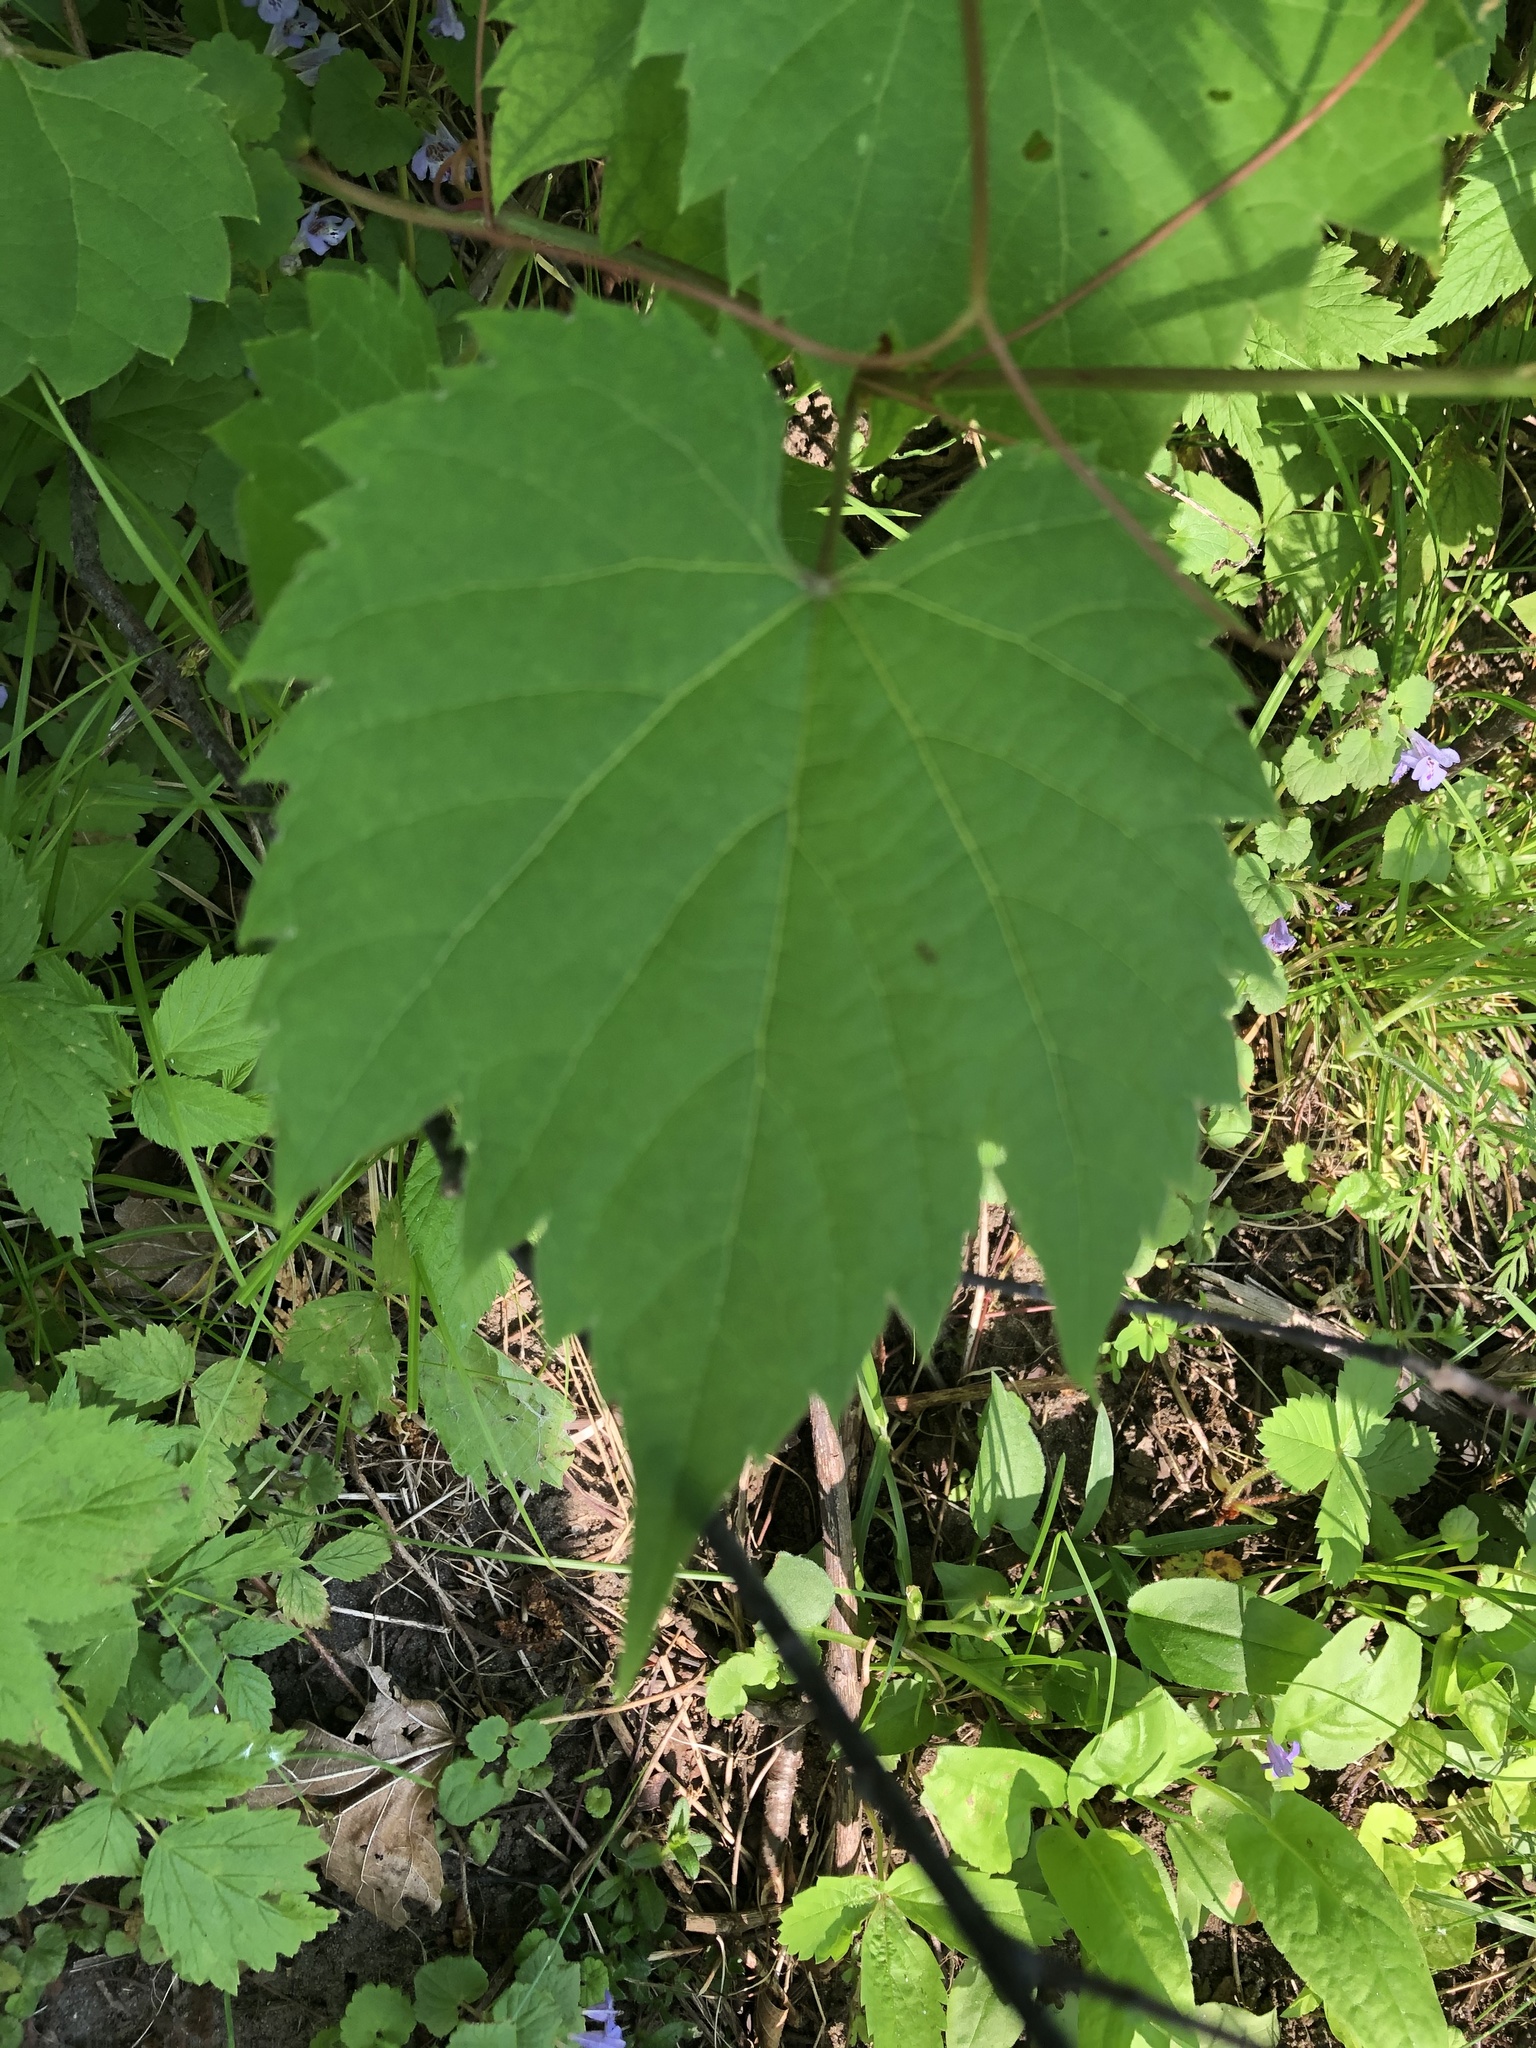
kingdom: Plantae
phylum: Tracheophyta
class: Magnoliopsida
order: Vitales
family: Vitaceae
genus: Vitis
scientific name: Vitis riparia
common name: Frost grape
